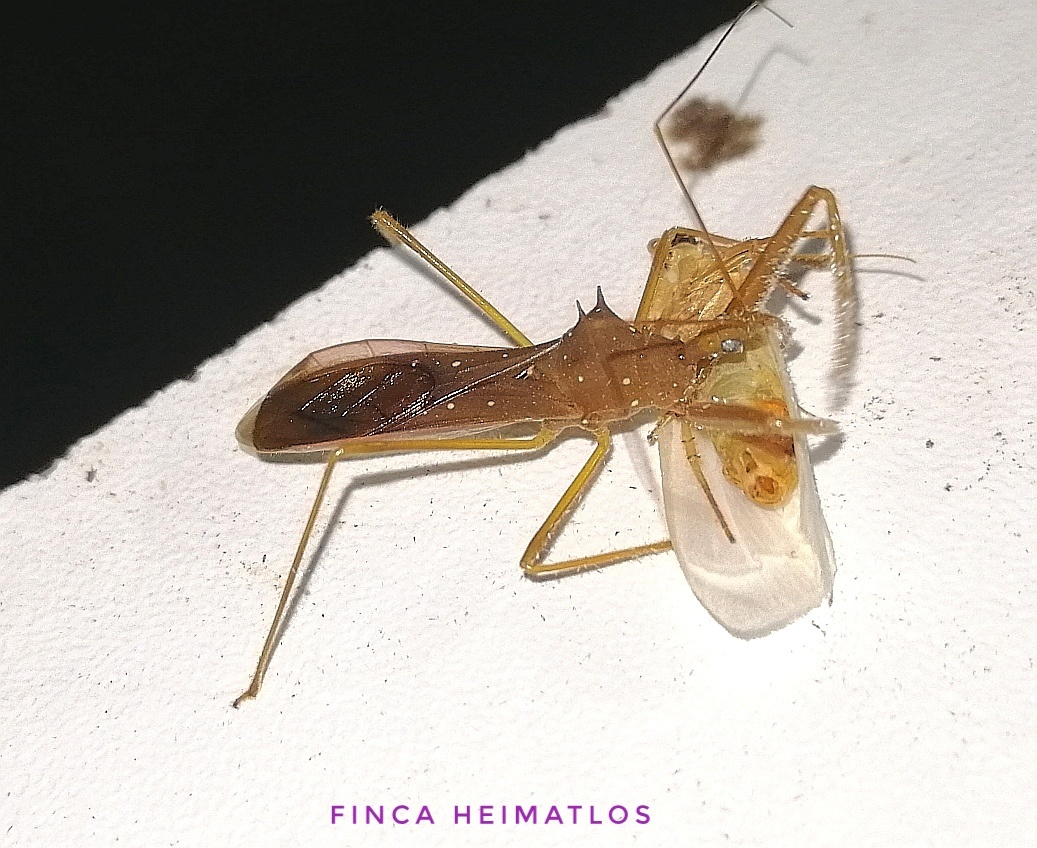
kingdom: Animalia
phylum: Arthropoda
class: Insecta
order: Hemiptera
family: Reduviidae
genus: Heza
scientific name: Heza phthinica
